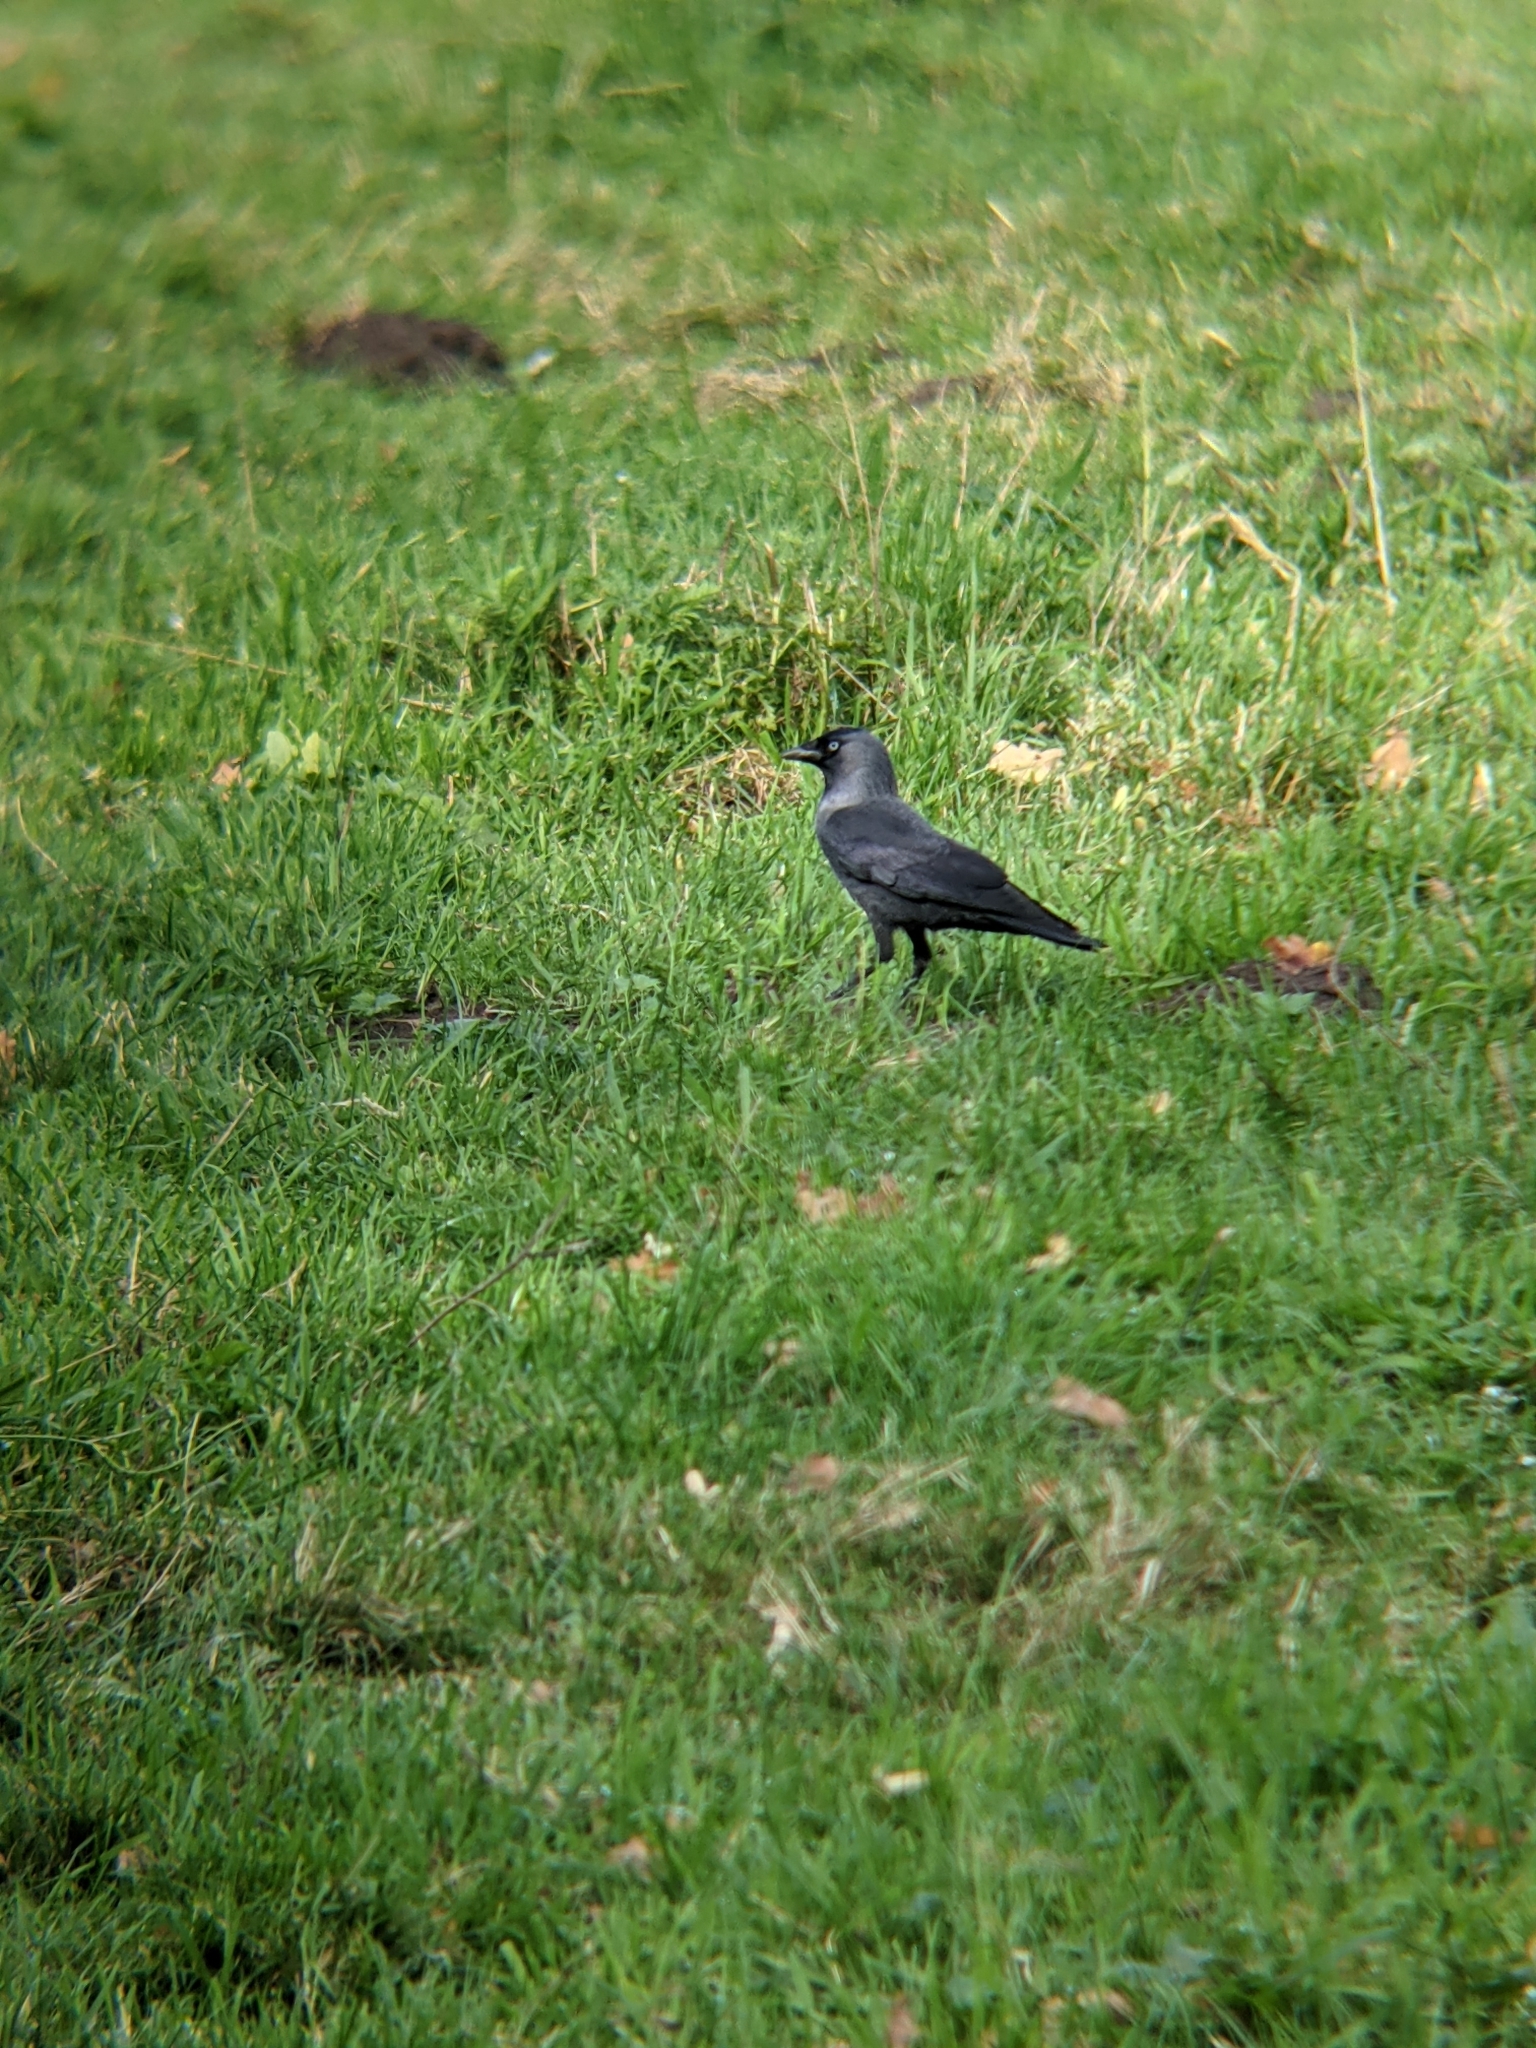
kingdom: Animalia
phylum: Chordata
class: Aves
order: Passeriformes
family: Corvidae
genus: Coloeus
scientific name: Coloeus monedula
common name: Western jackdaw
